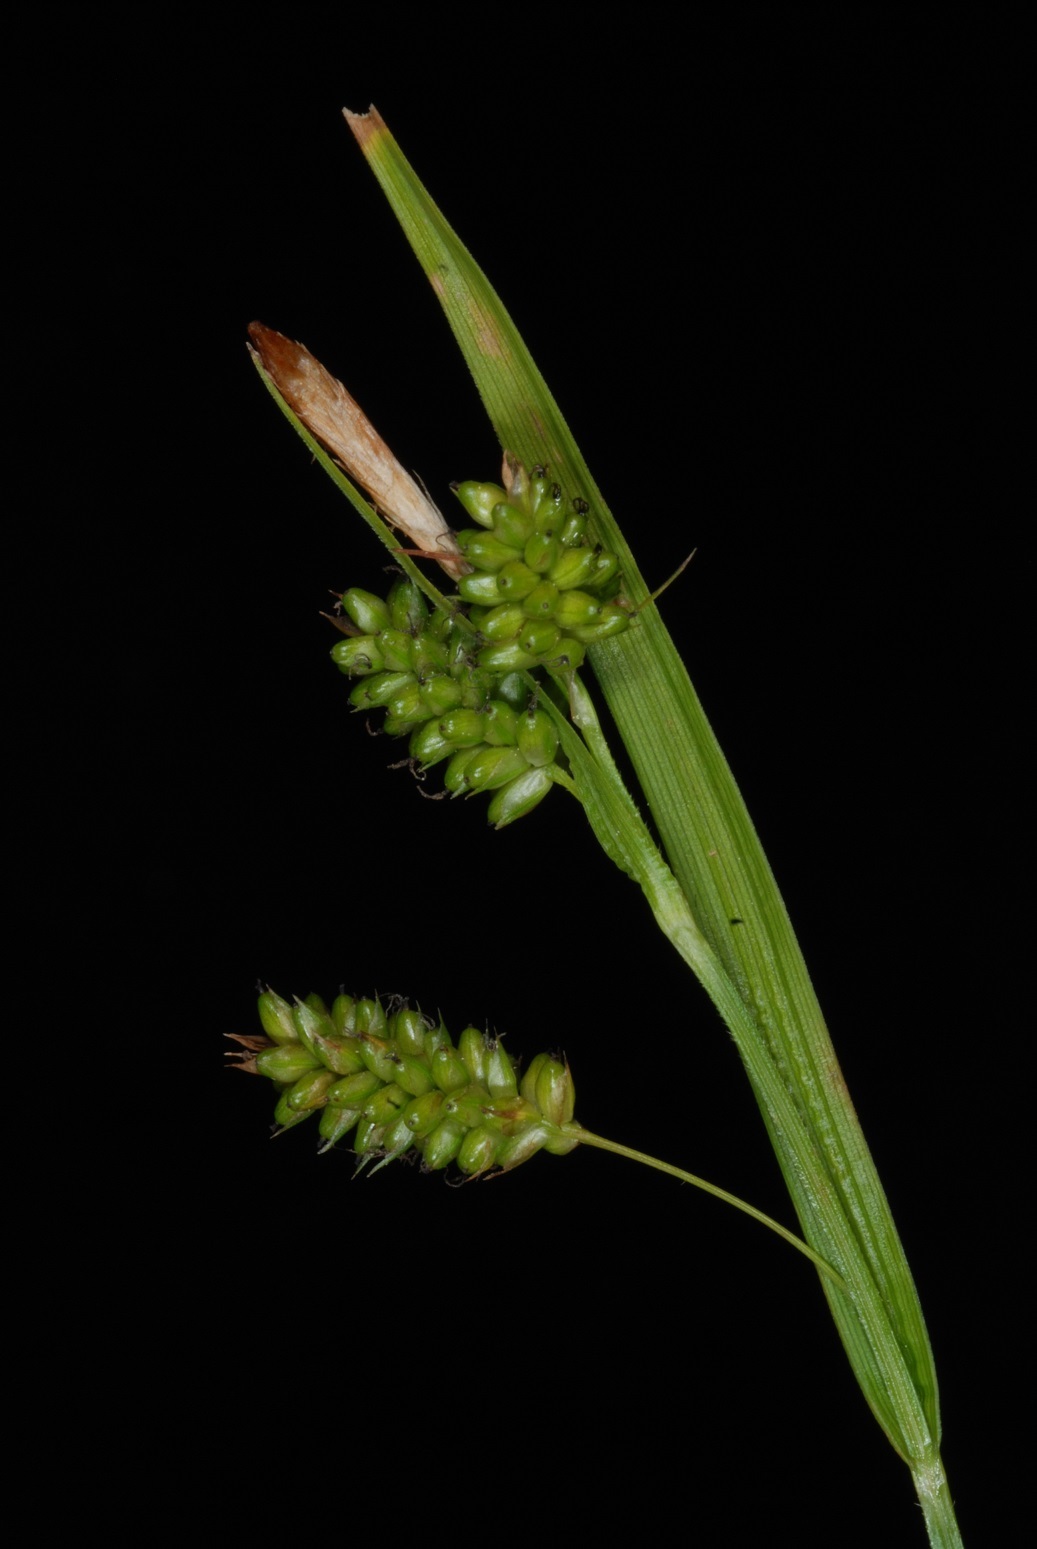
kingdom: Plantae
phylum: Tracheophyta
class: Liliopsida
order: Poales
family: Cyperaceae
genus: Carex
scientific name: Carex pallescens
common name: Pale sedge
